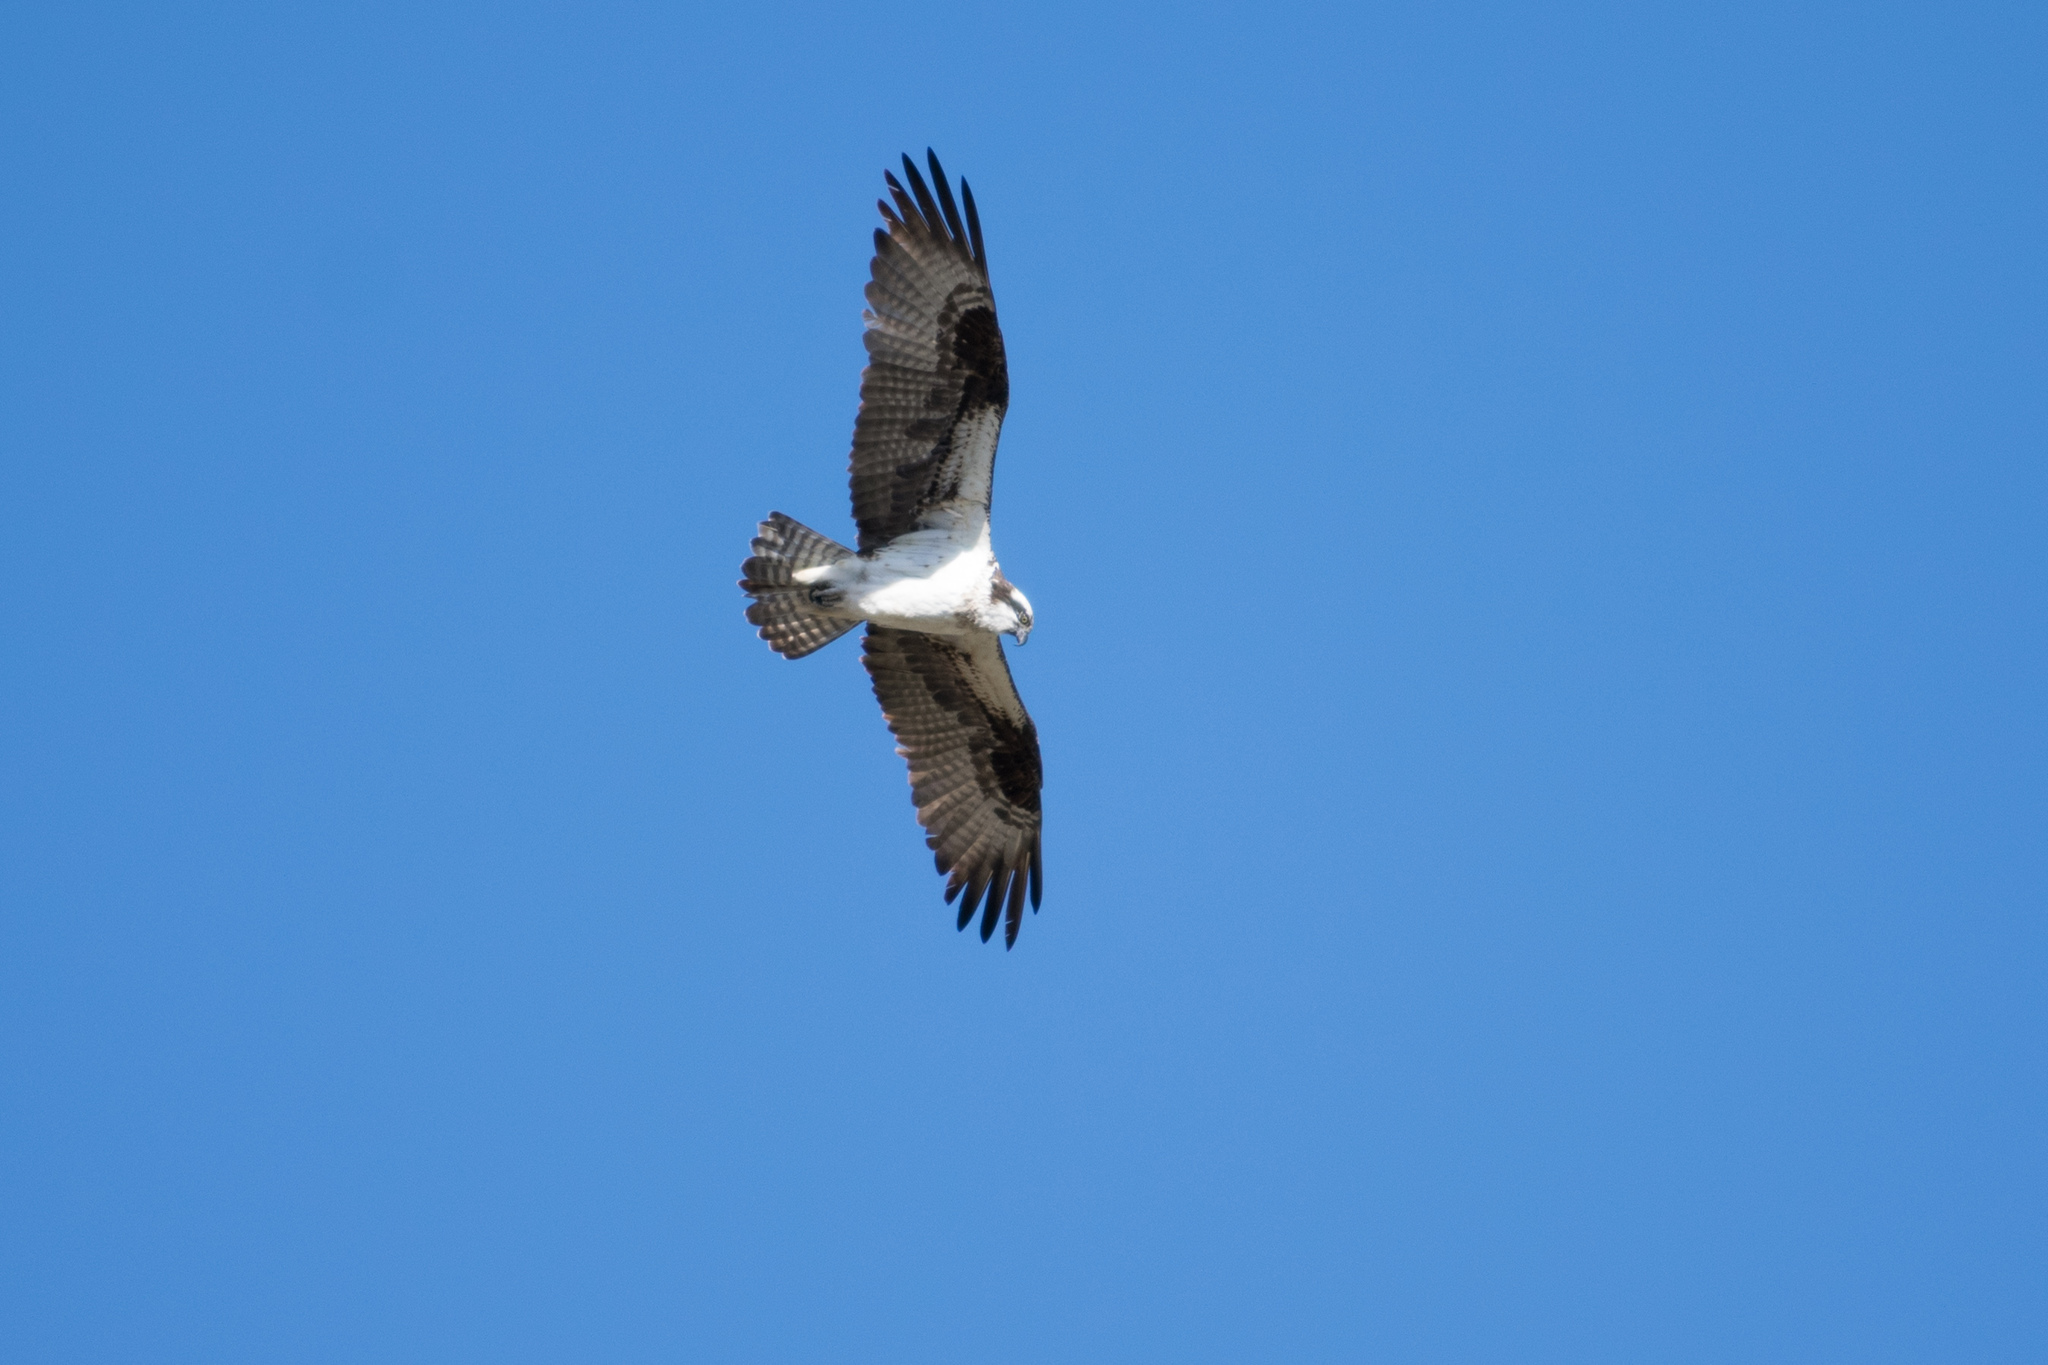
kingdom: Animalia
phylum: Chordata
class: Aves
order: Accipitriformes
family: Pandionidae
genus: Pandion
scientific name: Pandion haliaetus
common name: Osprey
